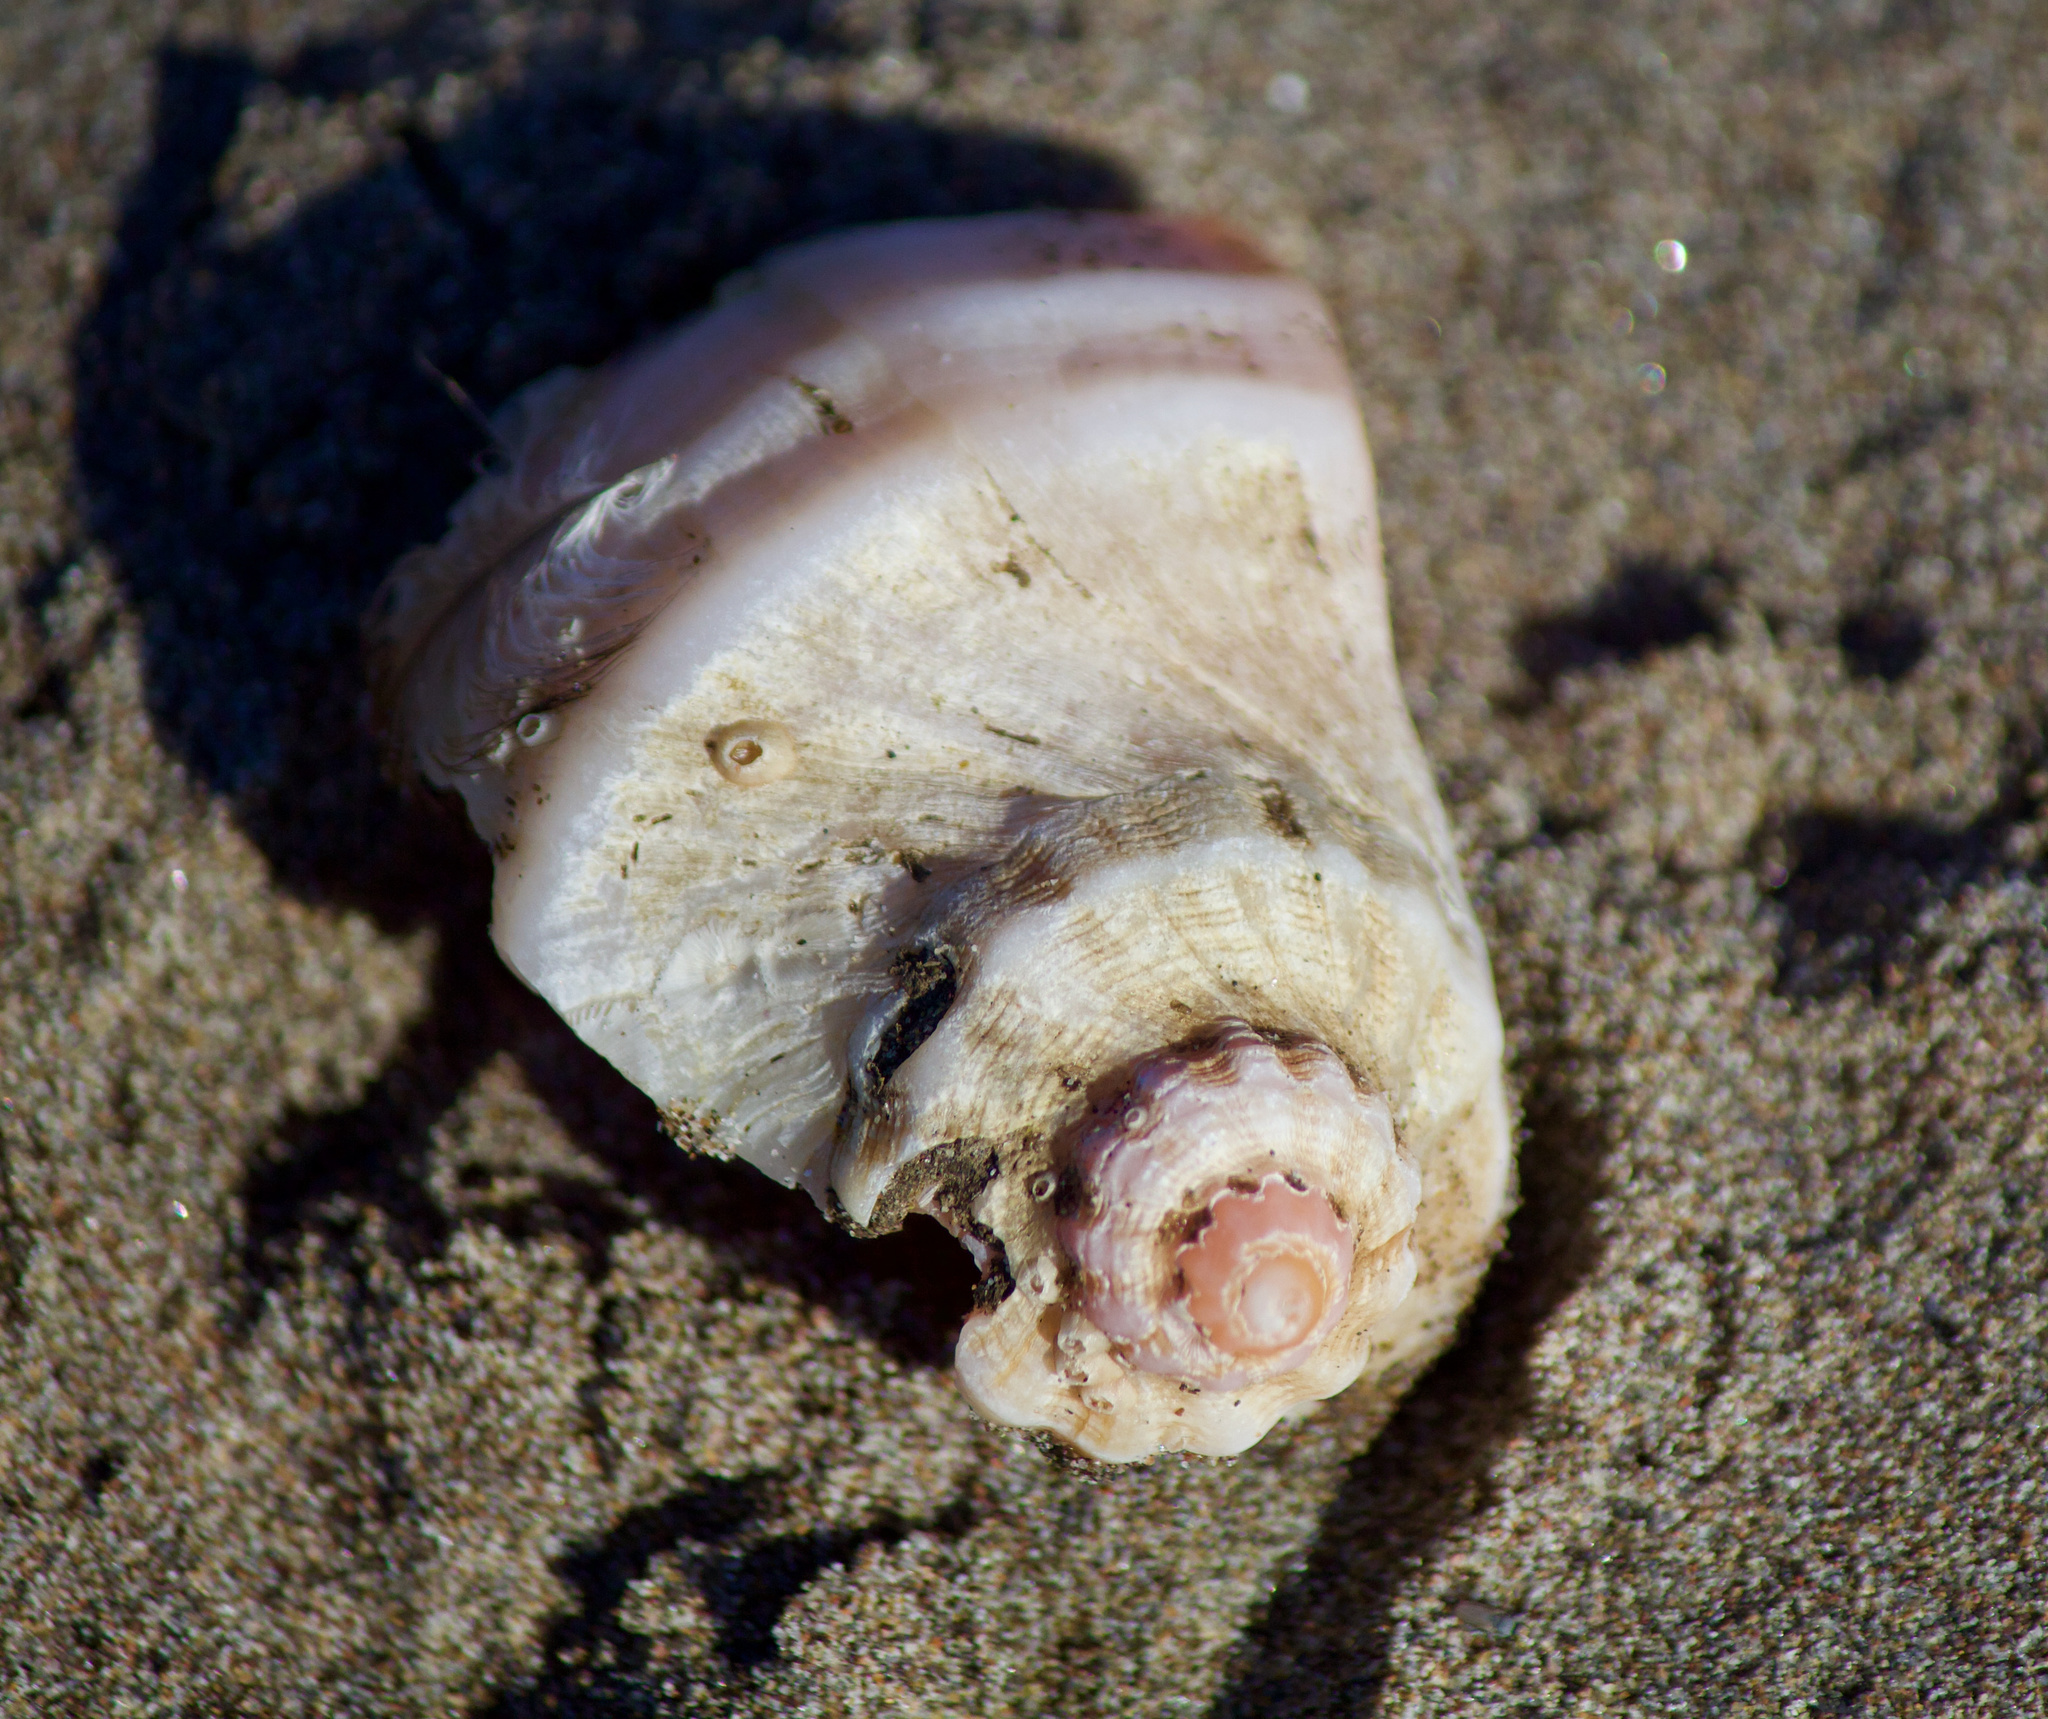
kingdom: Animalia
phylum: Mollusca
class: Gastropoda
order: Neogastropoda
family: Muricidae
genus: Xanthochorus
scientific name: Xanthochorus cassidiformis
